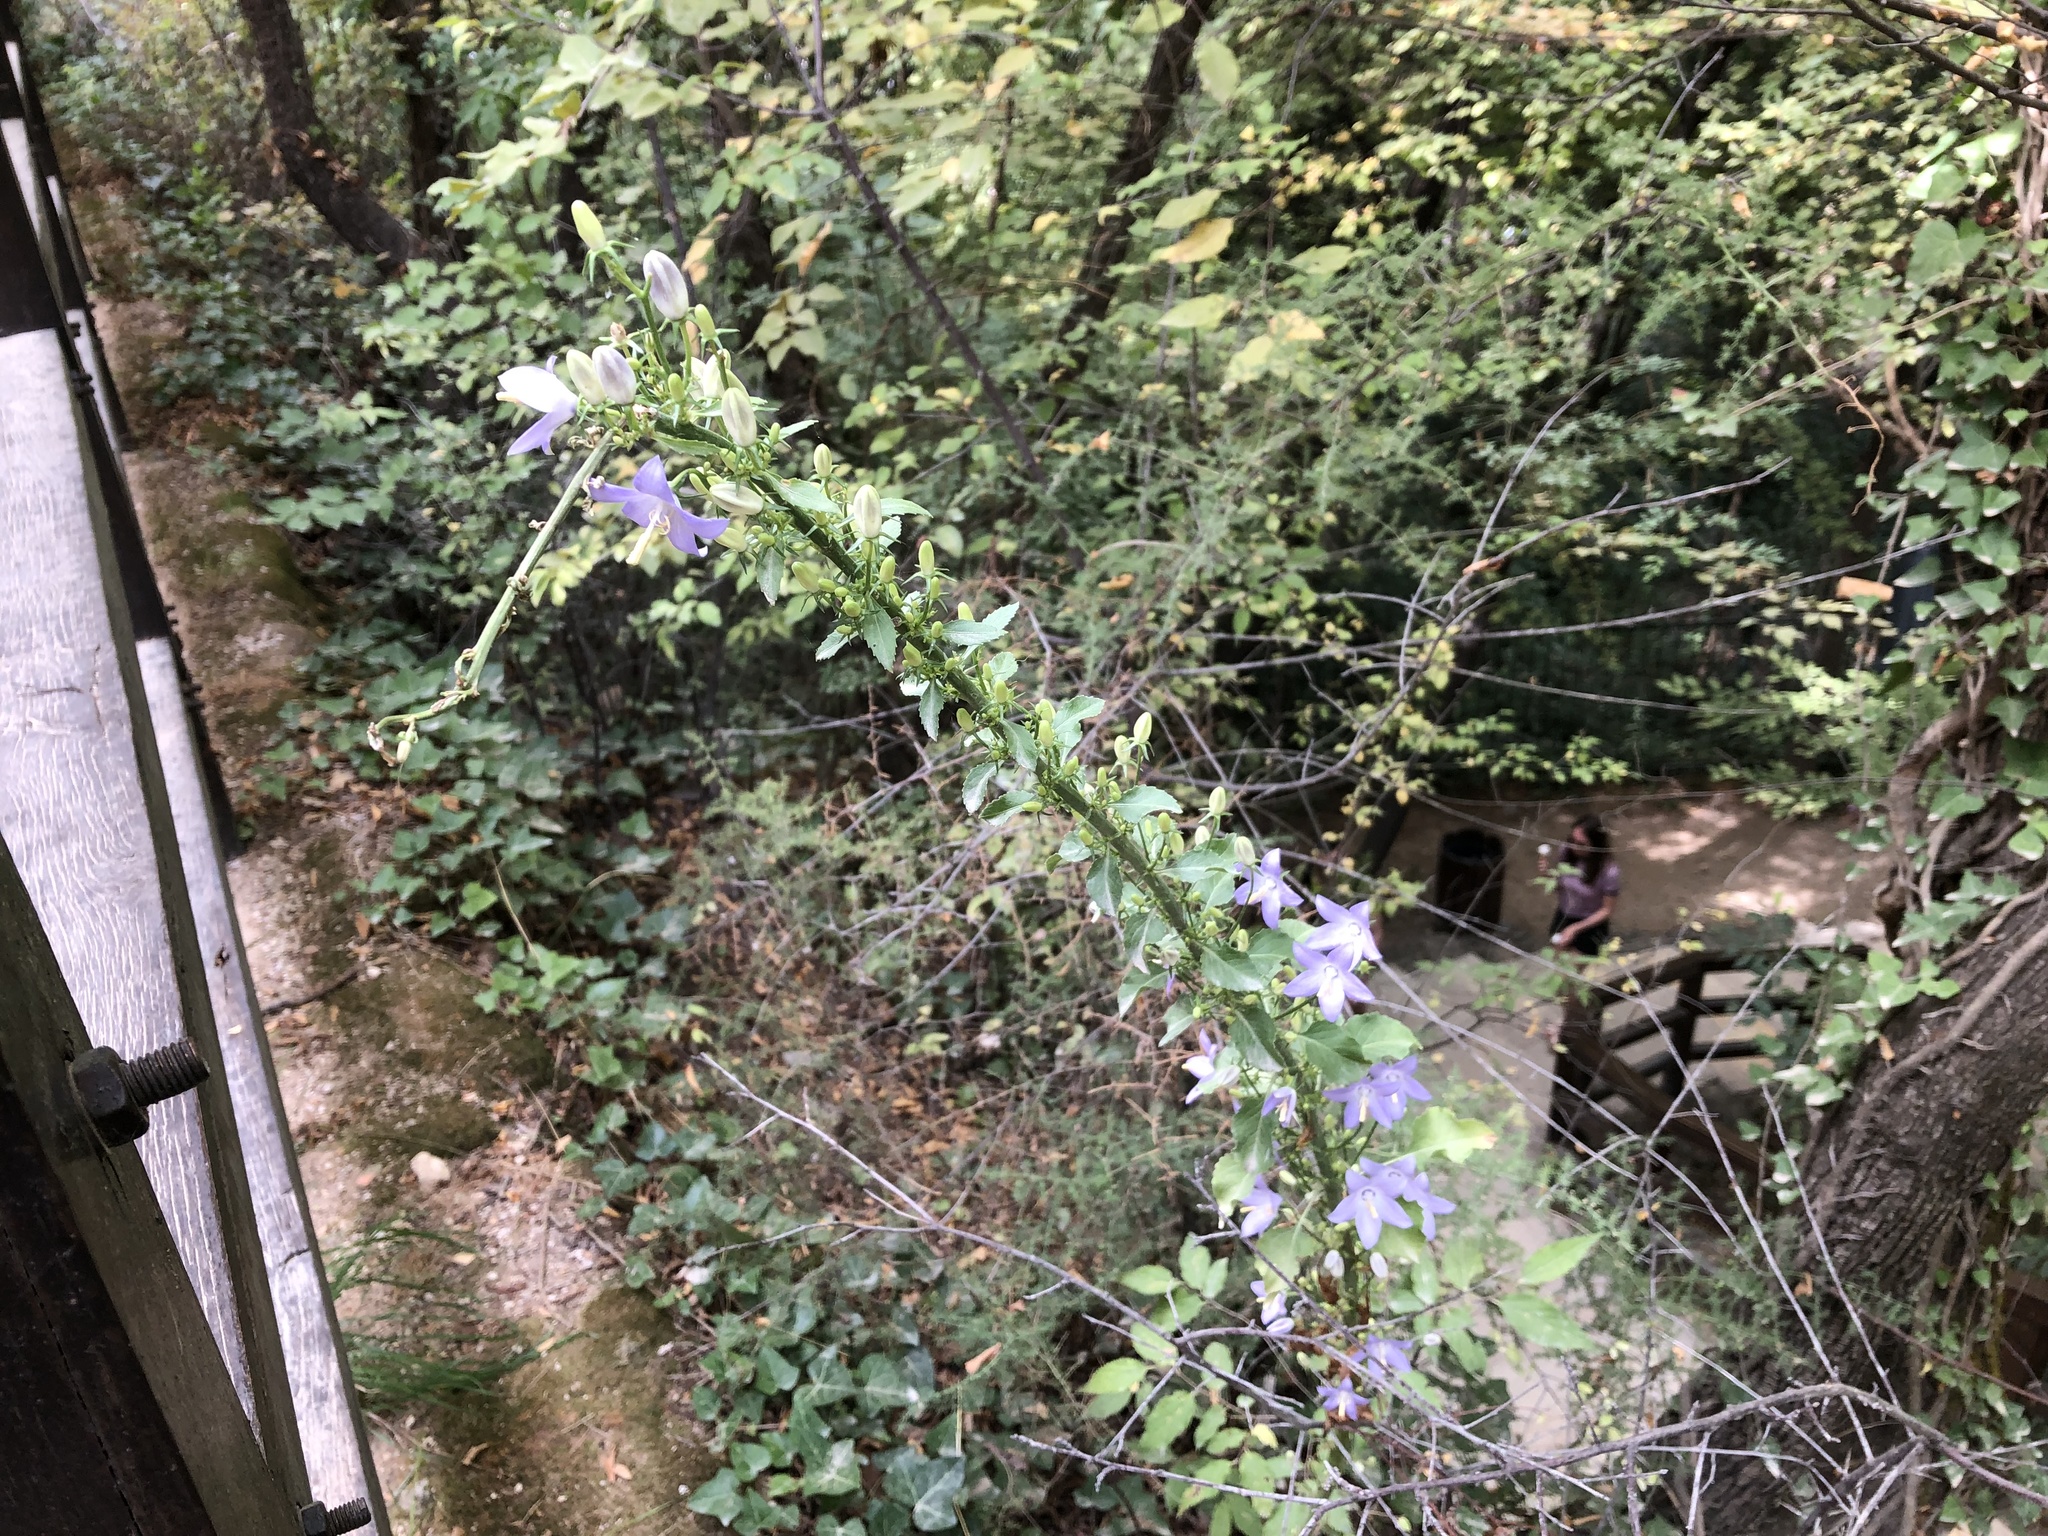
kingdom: Plantae
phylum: Tracheophyta
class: Magnoliopsida
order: Asterales
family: Campanulaceae
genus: Campanula
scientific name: Campanula pyramidalis
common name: Chimney bellflower
